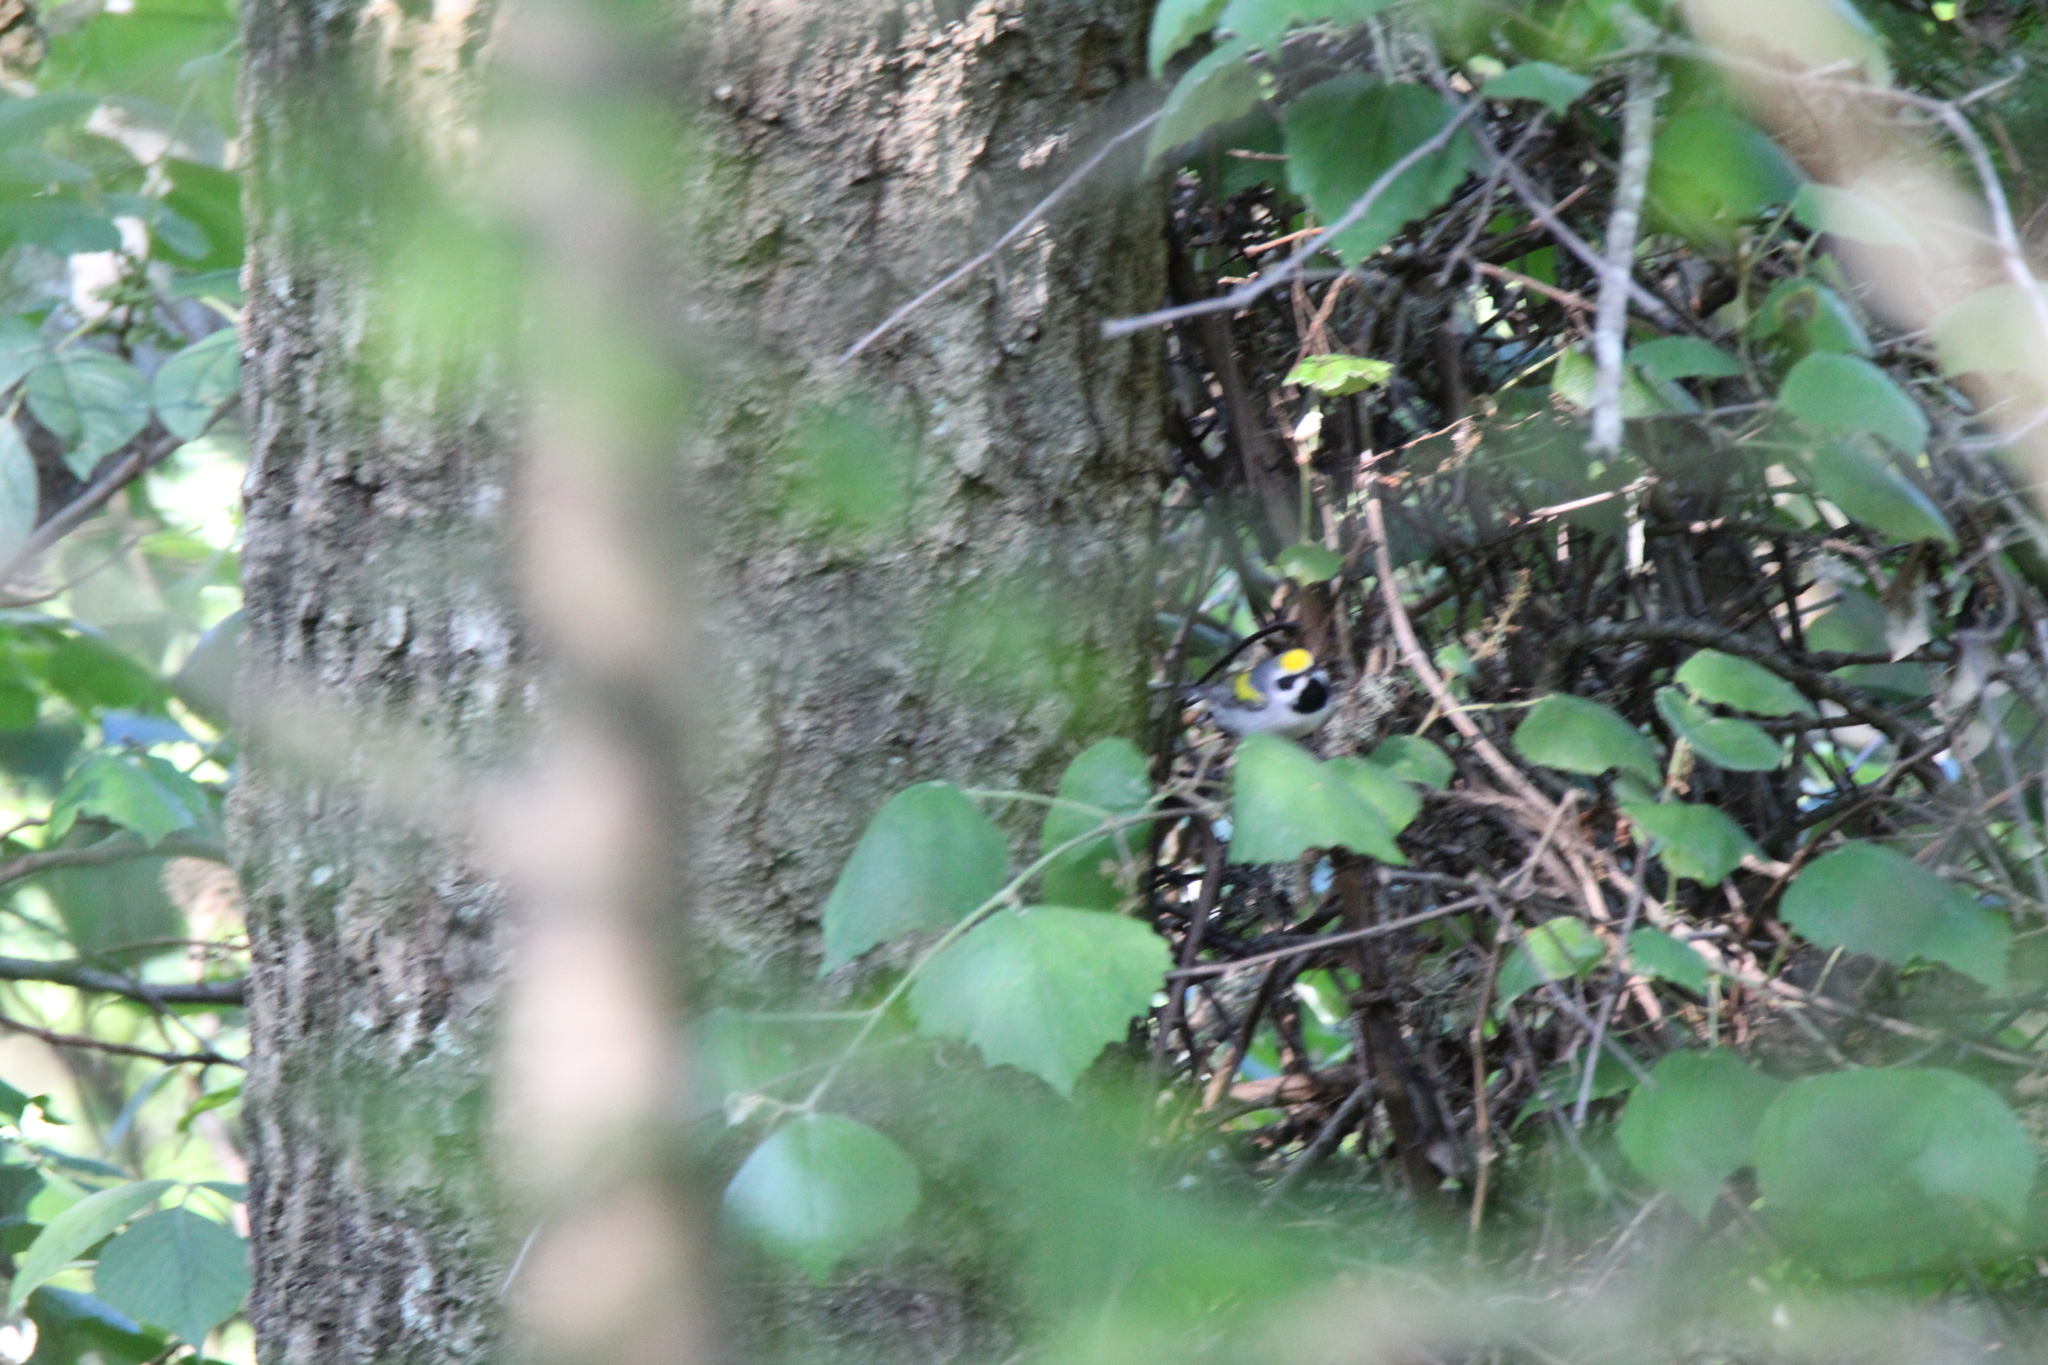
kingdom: Animalia
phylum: Chordata
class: Aves
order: Passeriformes
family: Parulidae
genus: Vermivora
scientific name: Vermivora chrysoptera
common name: Golden-winged warbler
